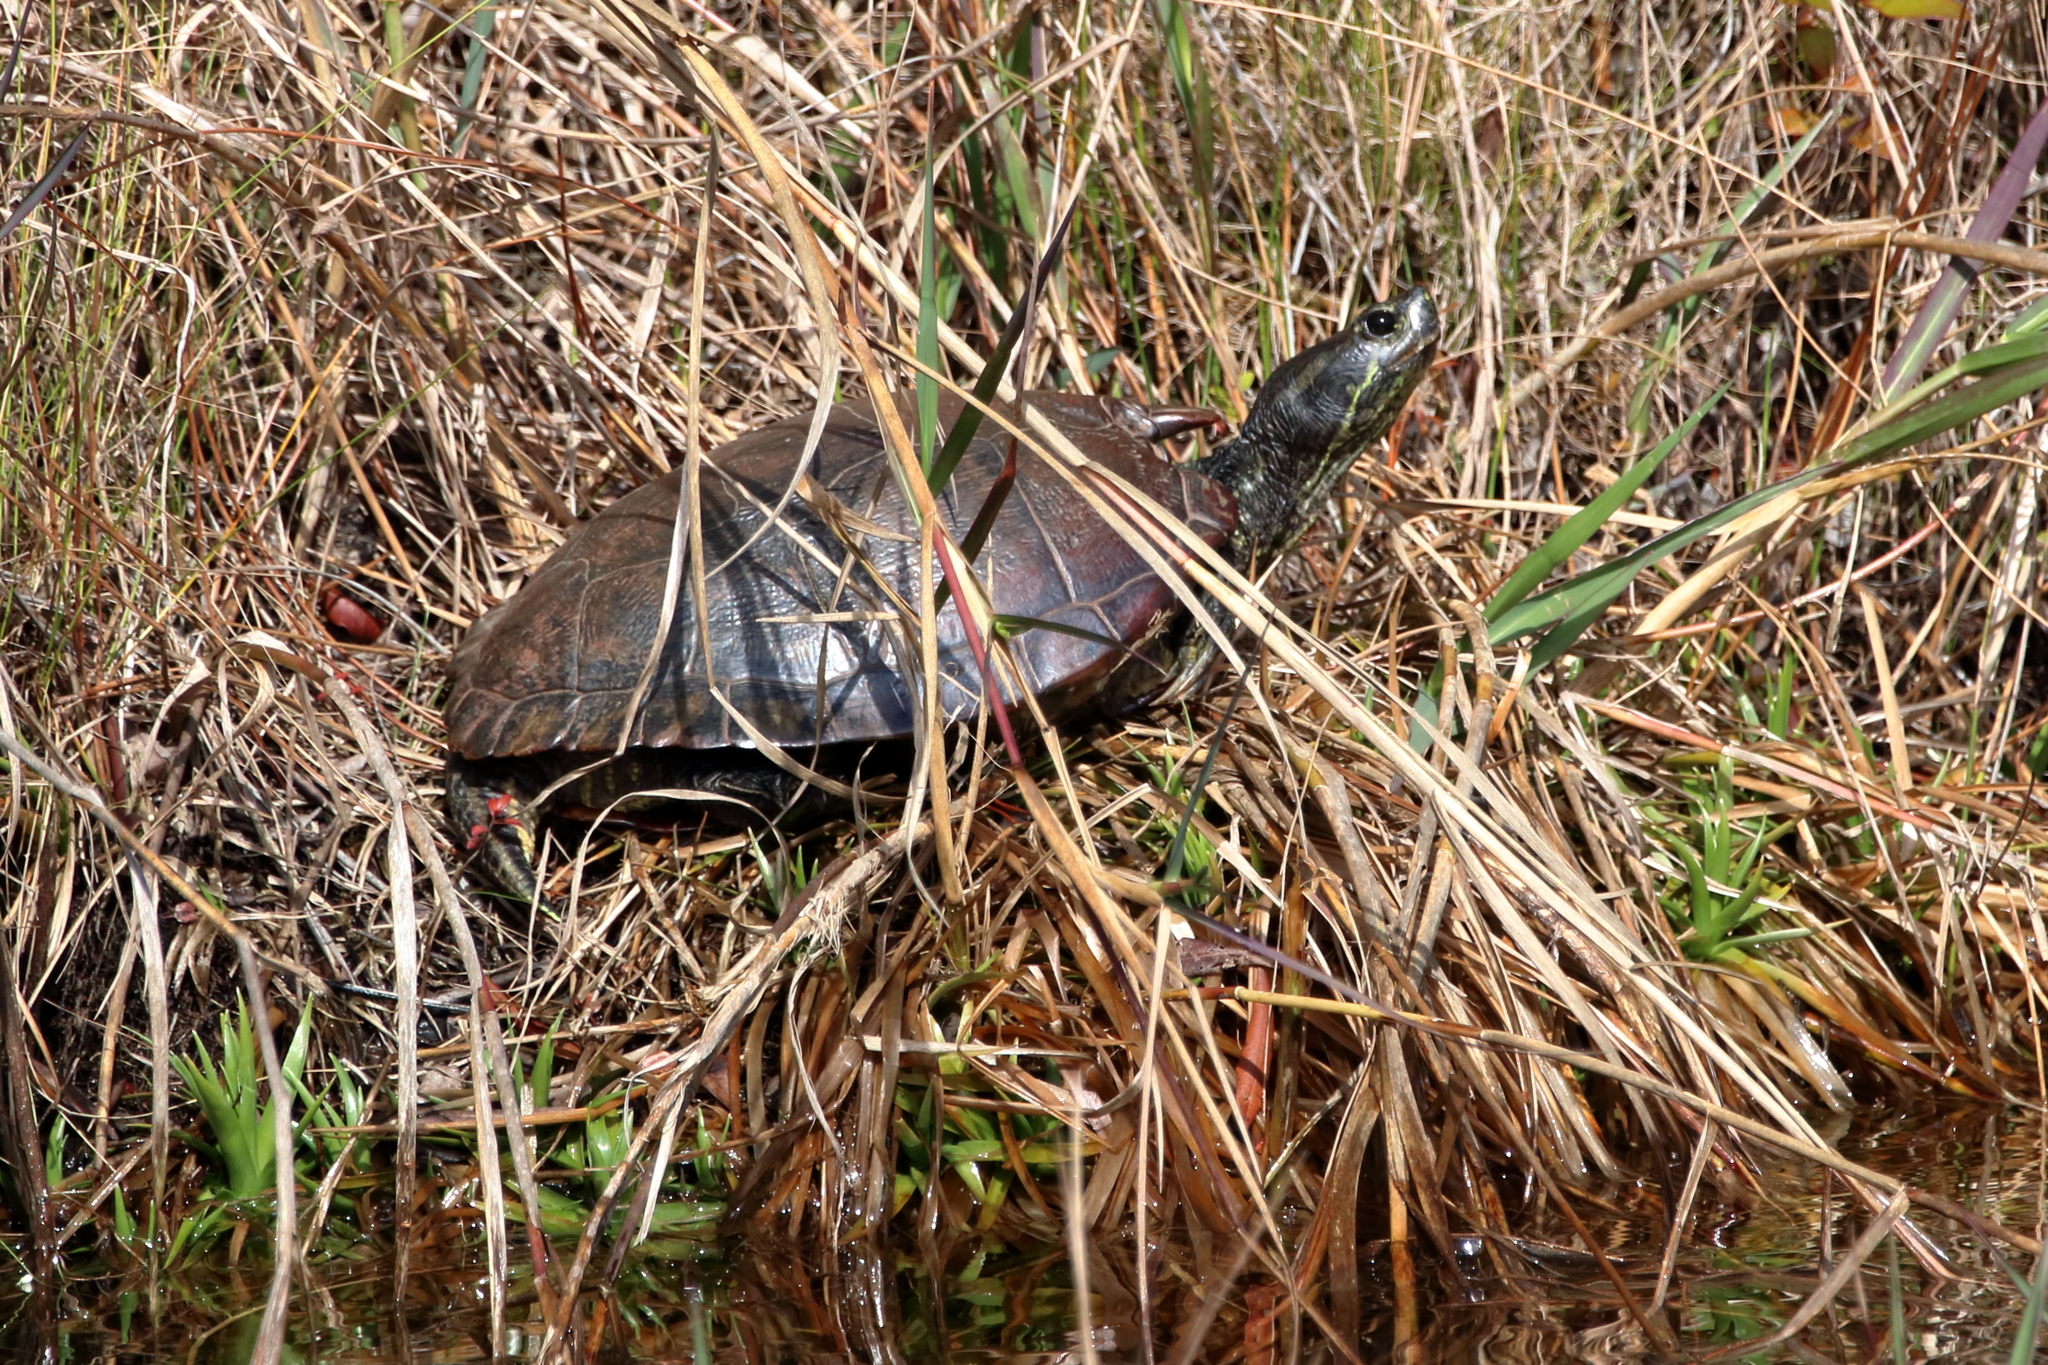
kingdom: Animalia
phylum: Chordata
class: Testudines
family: Emydidae
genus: Trachemys
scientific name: Trachemys scripta
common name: Slider
